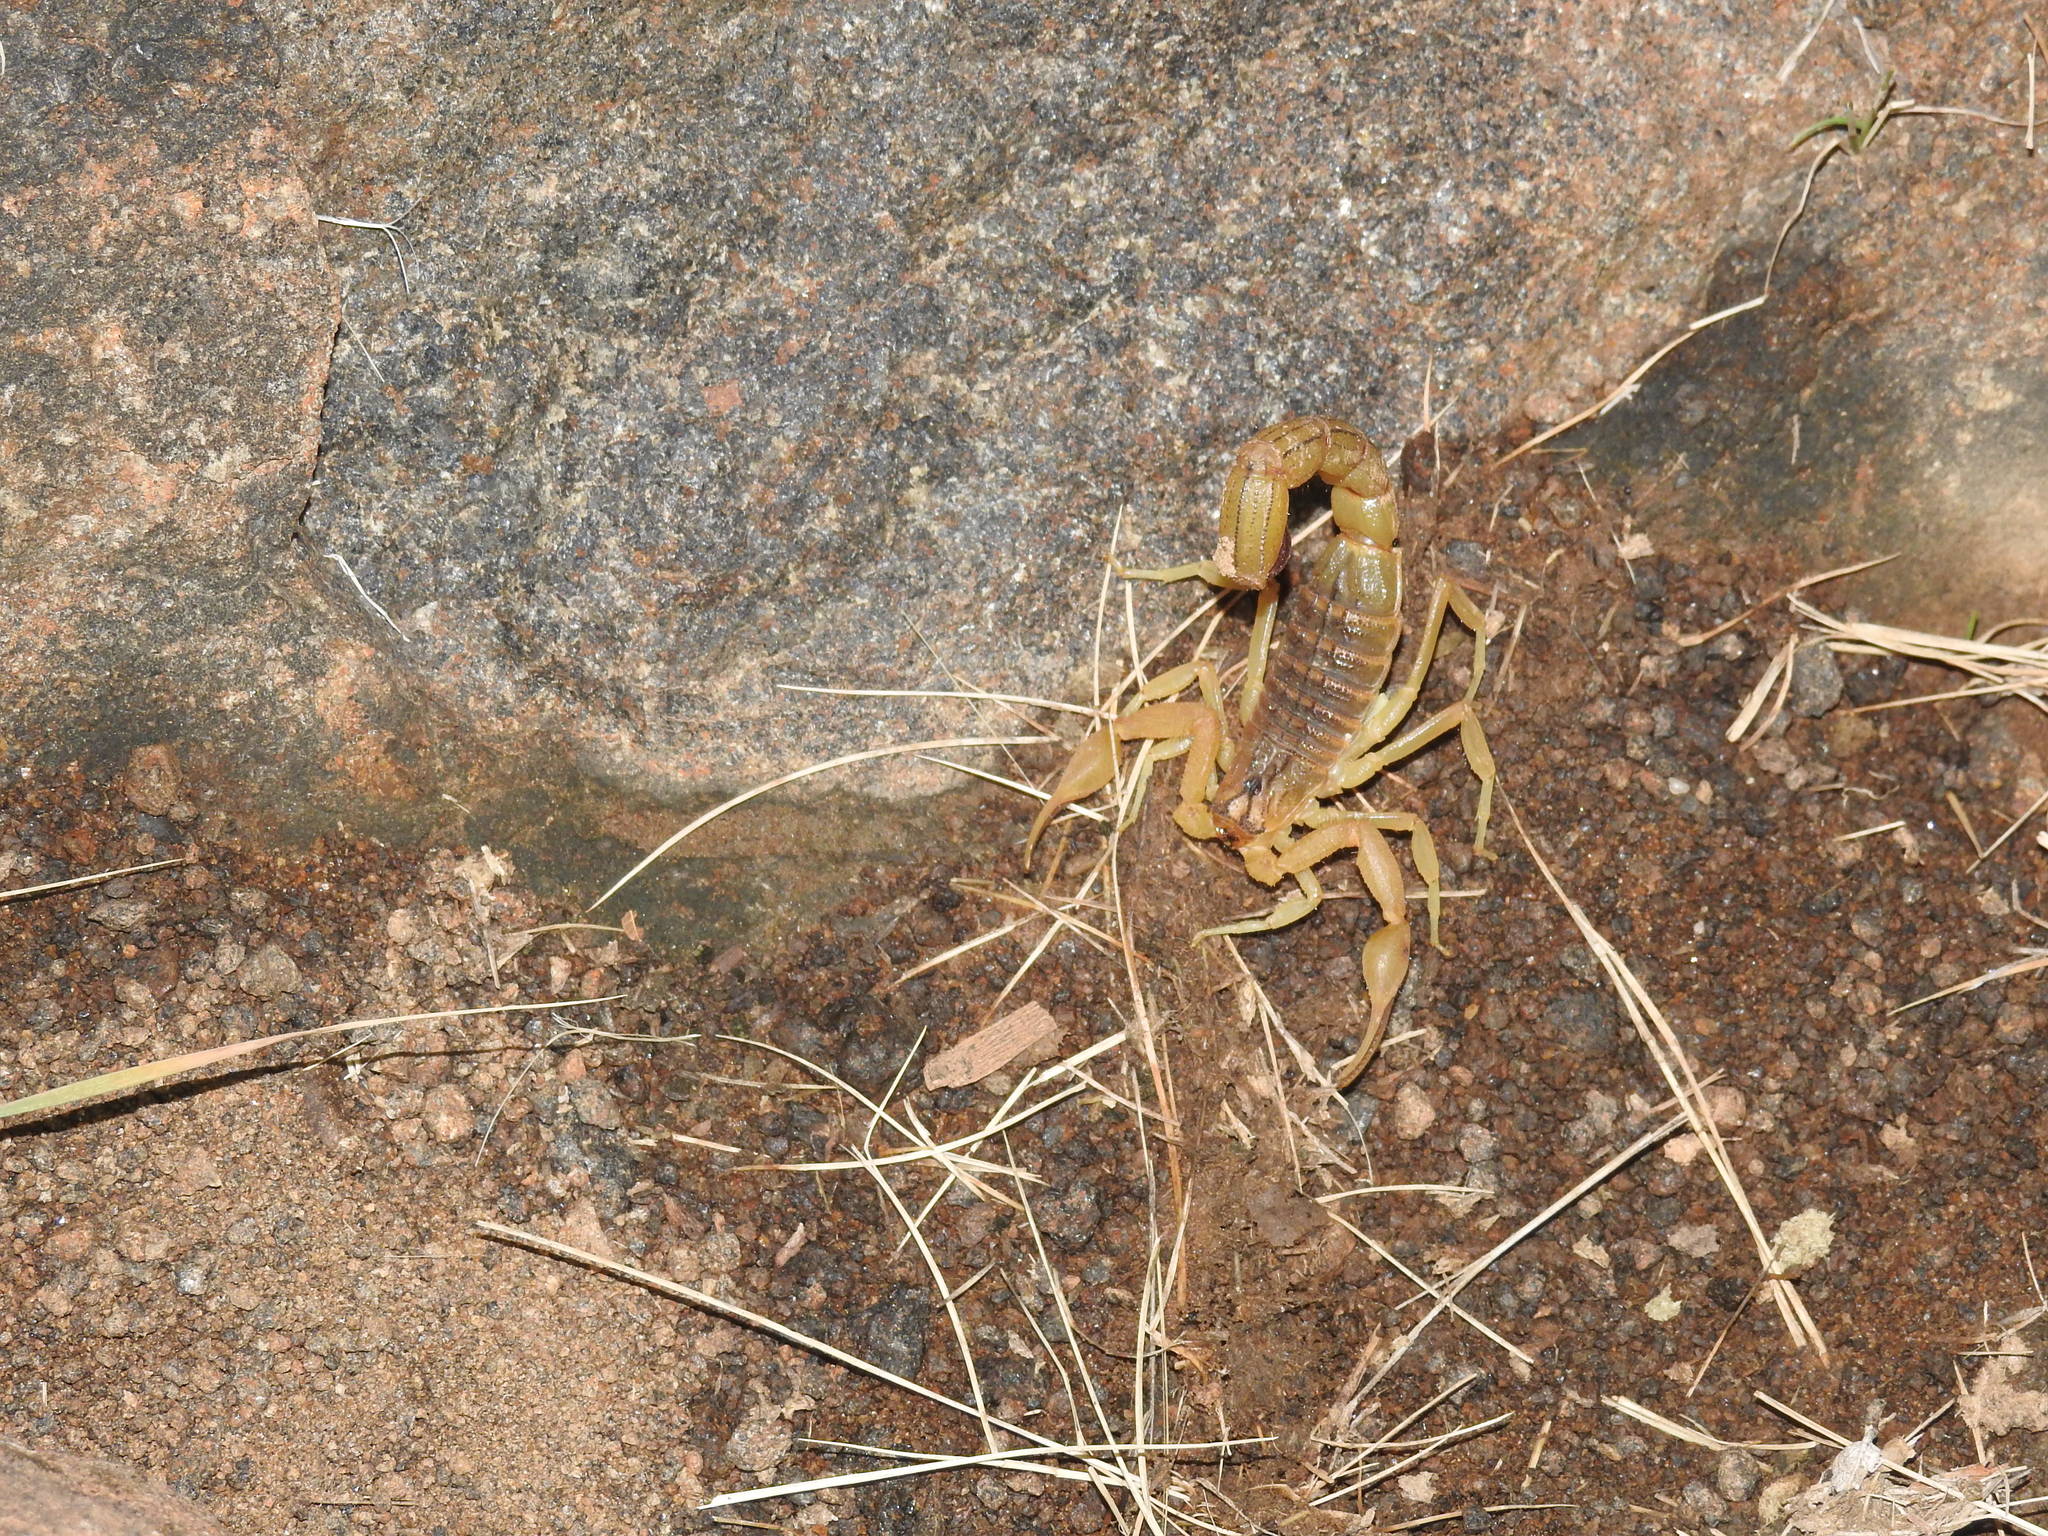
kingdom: Animalia
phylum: Arthropoda
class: Arachnida
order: Scorpiones
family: Buthidae
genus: Hottentotta
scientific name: Hottentotta tamulus
